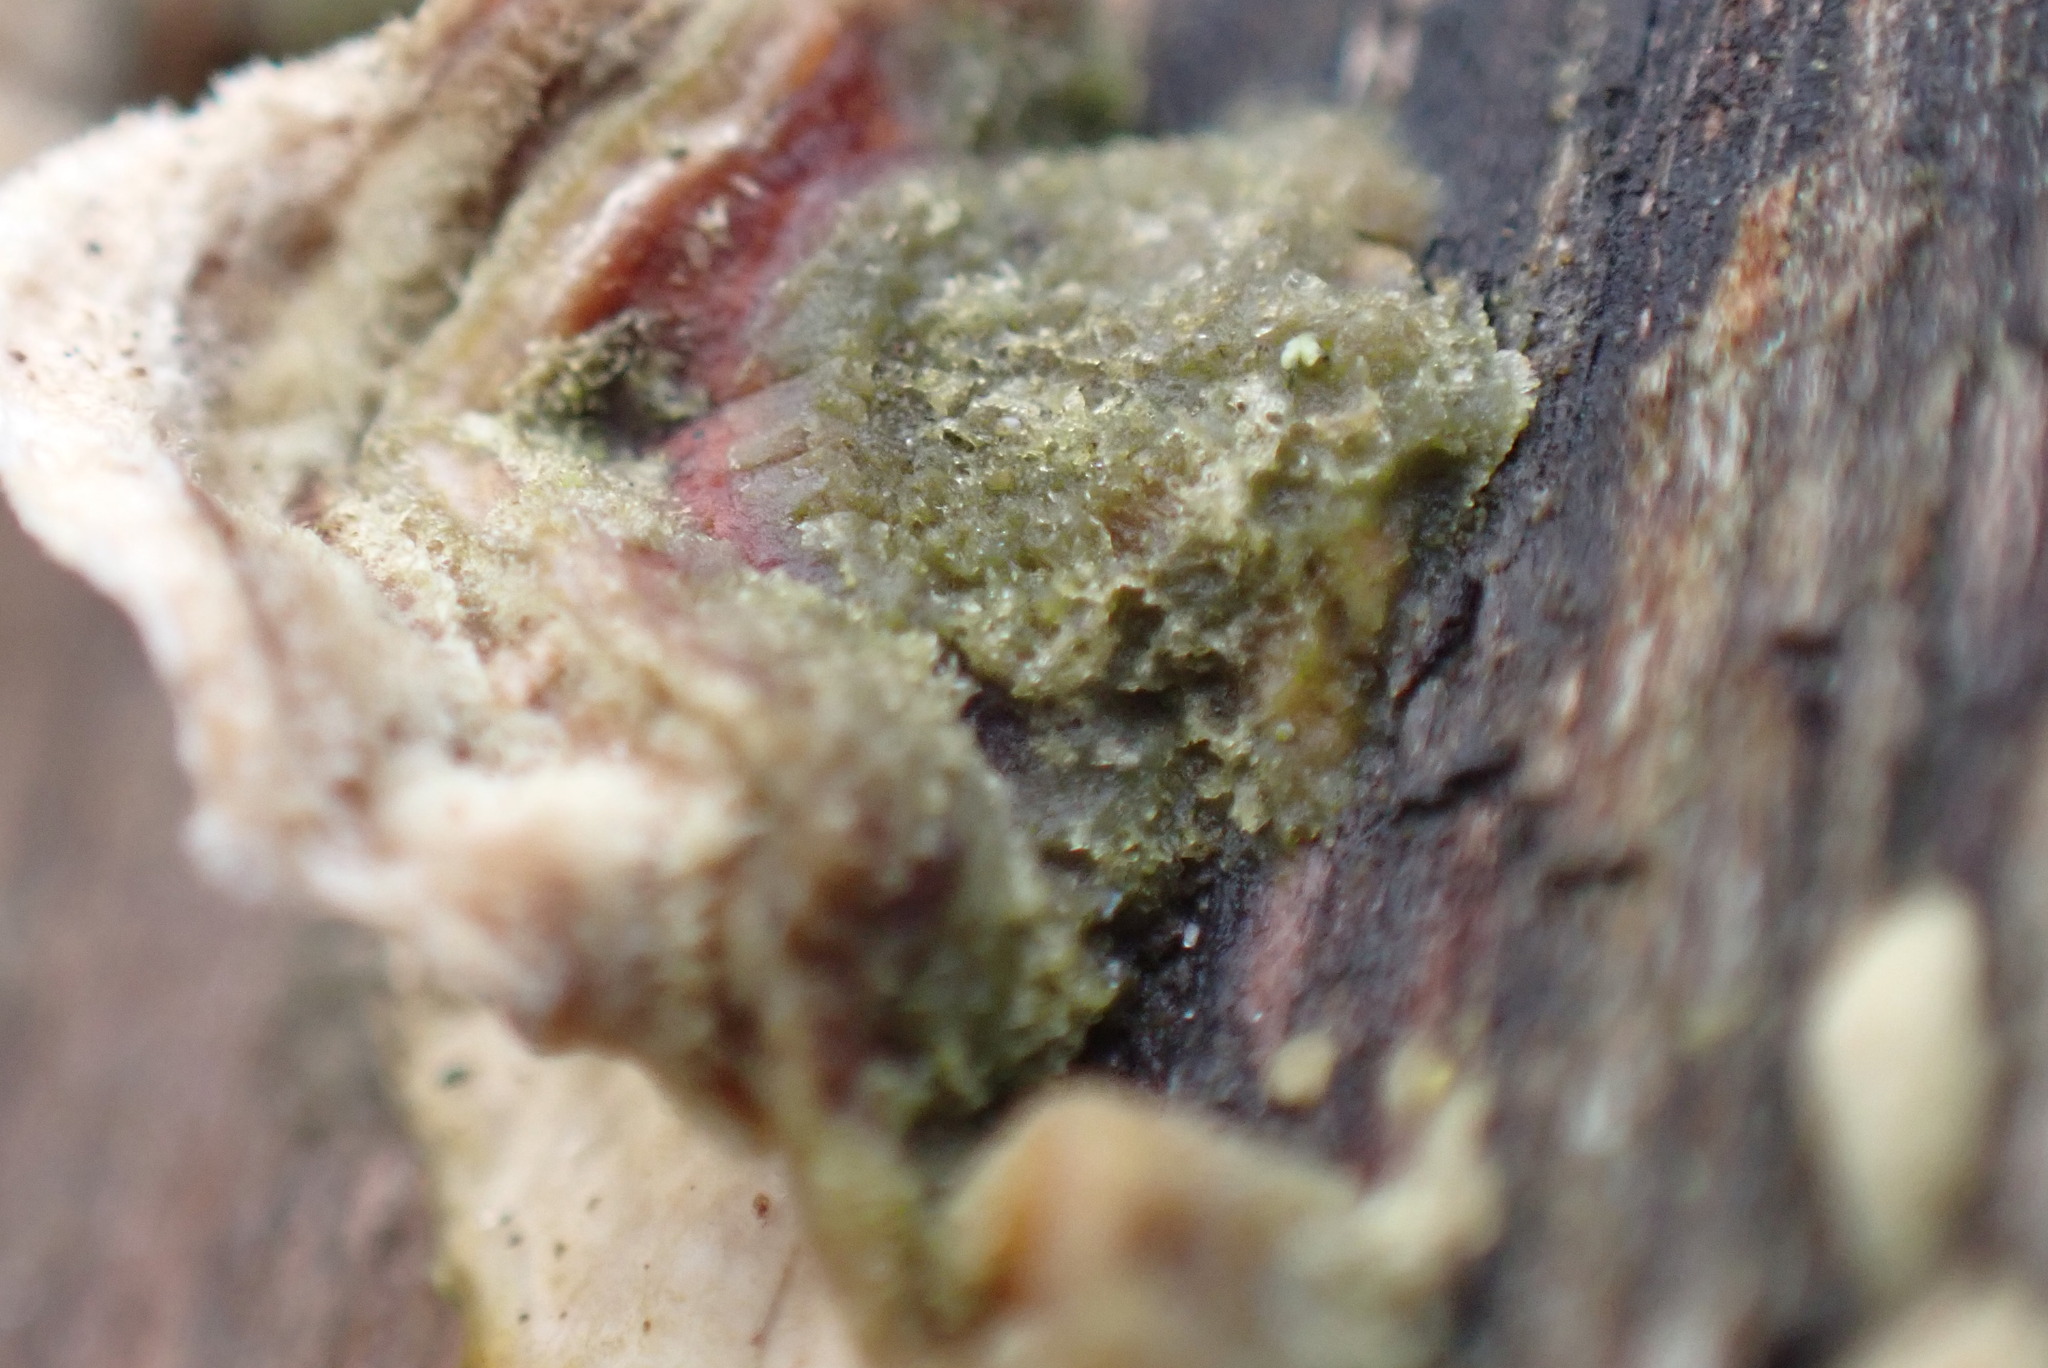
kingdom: Fungi
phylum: Basidiomycota
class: Agaricomycetes
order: Russulales
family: Stereaceae
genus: Stereum
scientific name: Stereum hirsutum
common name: Hairy curtain crust
